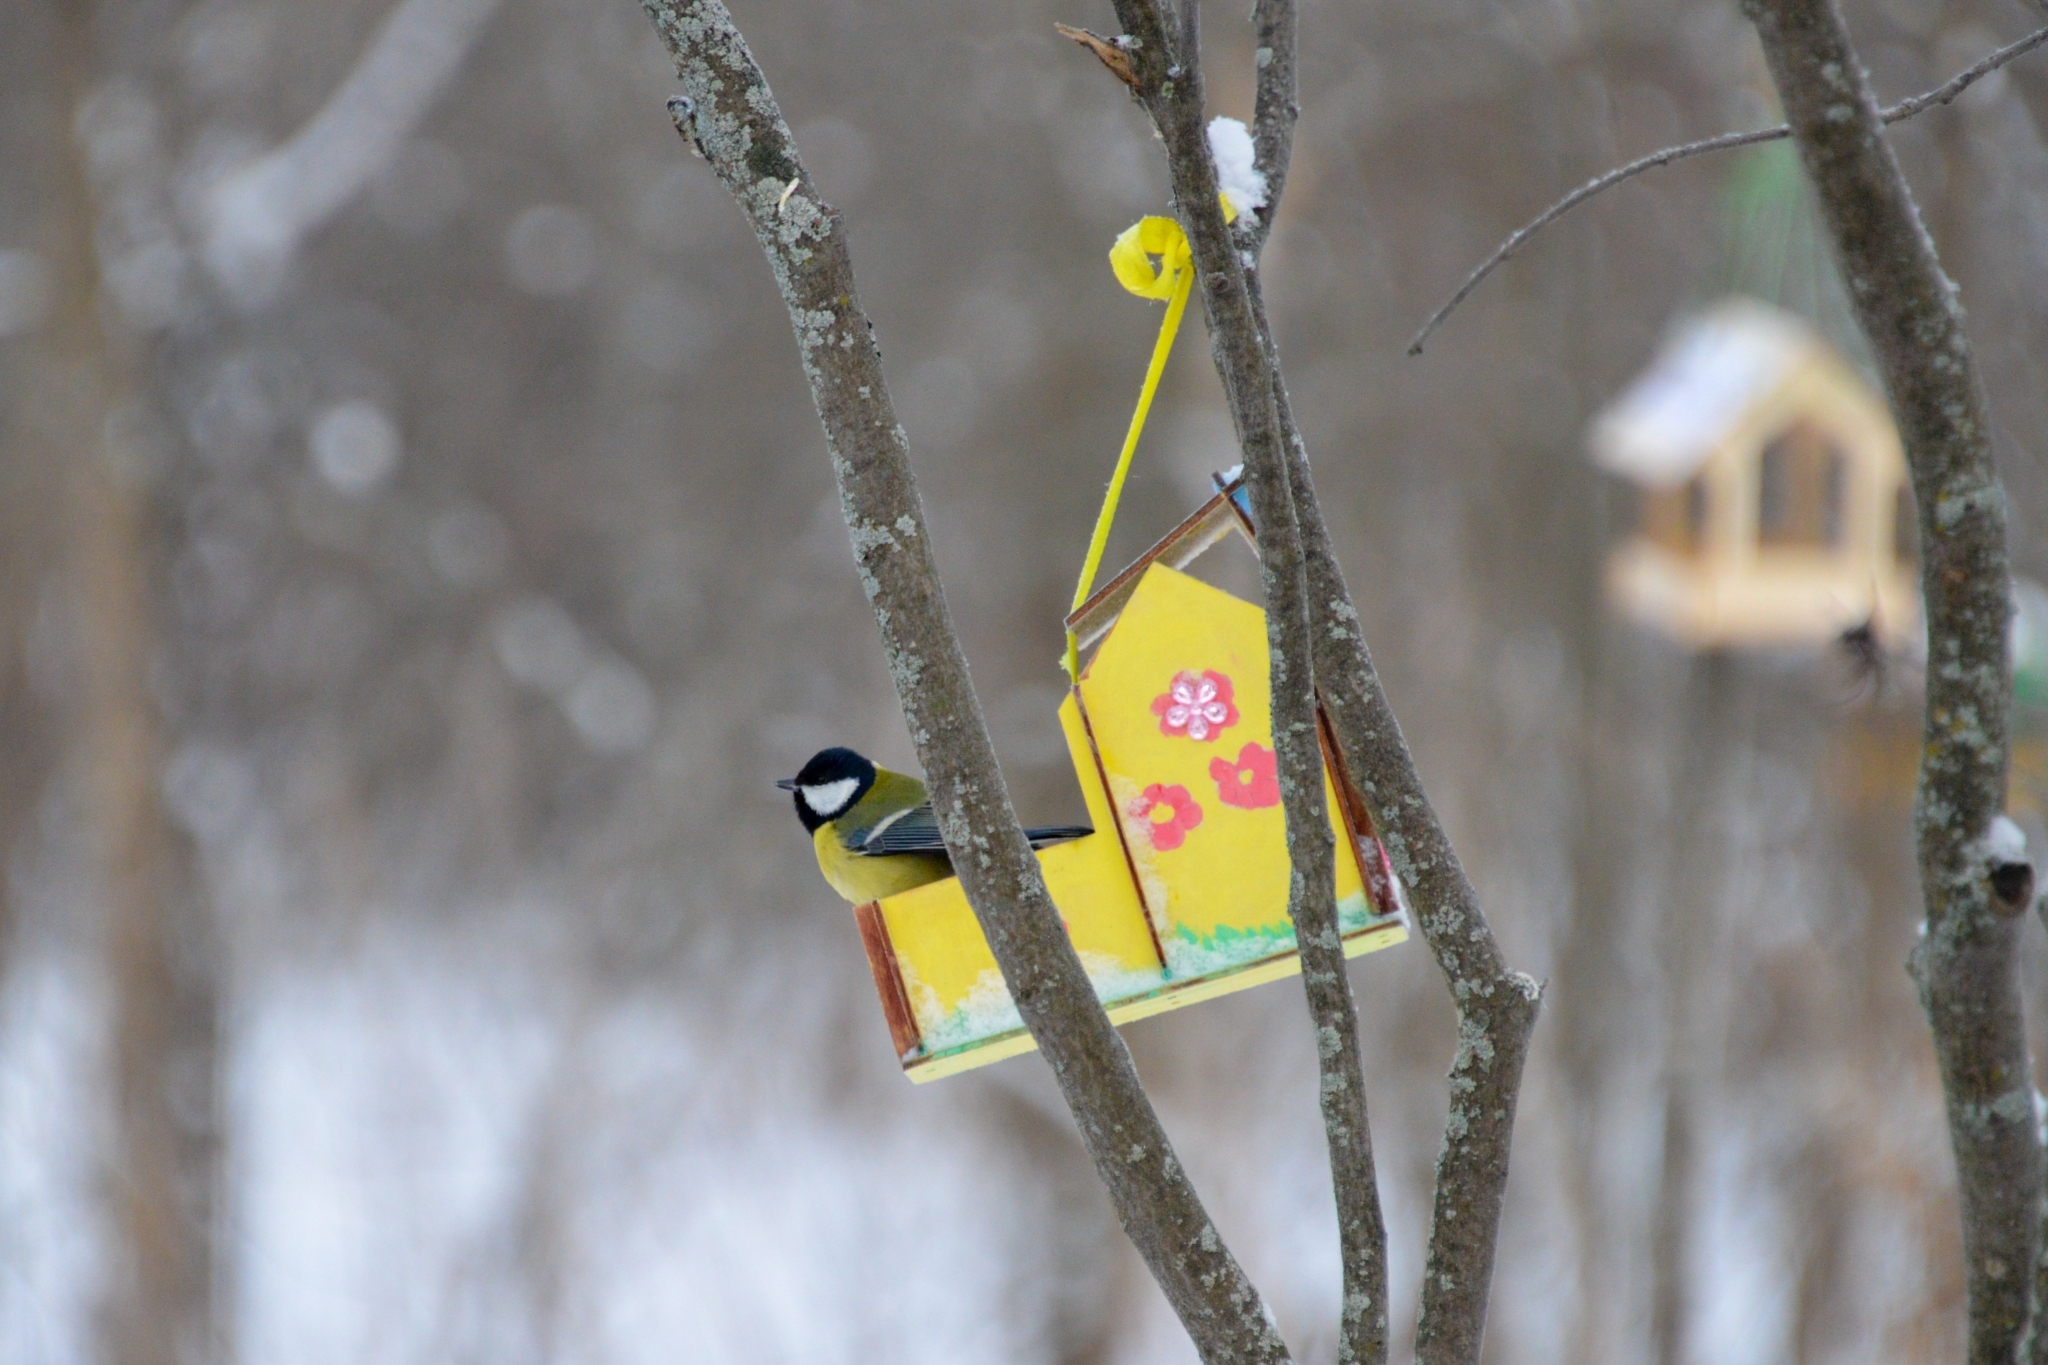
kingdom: Animalia
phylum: Chordata
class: Aves
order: Passeriformes
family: Paridae
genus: Parus
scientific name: Parus major
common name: Great tit
